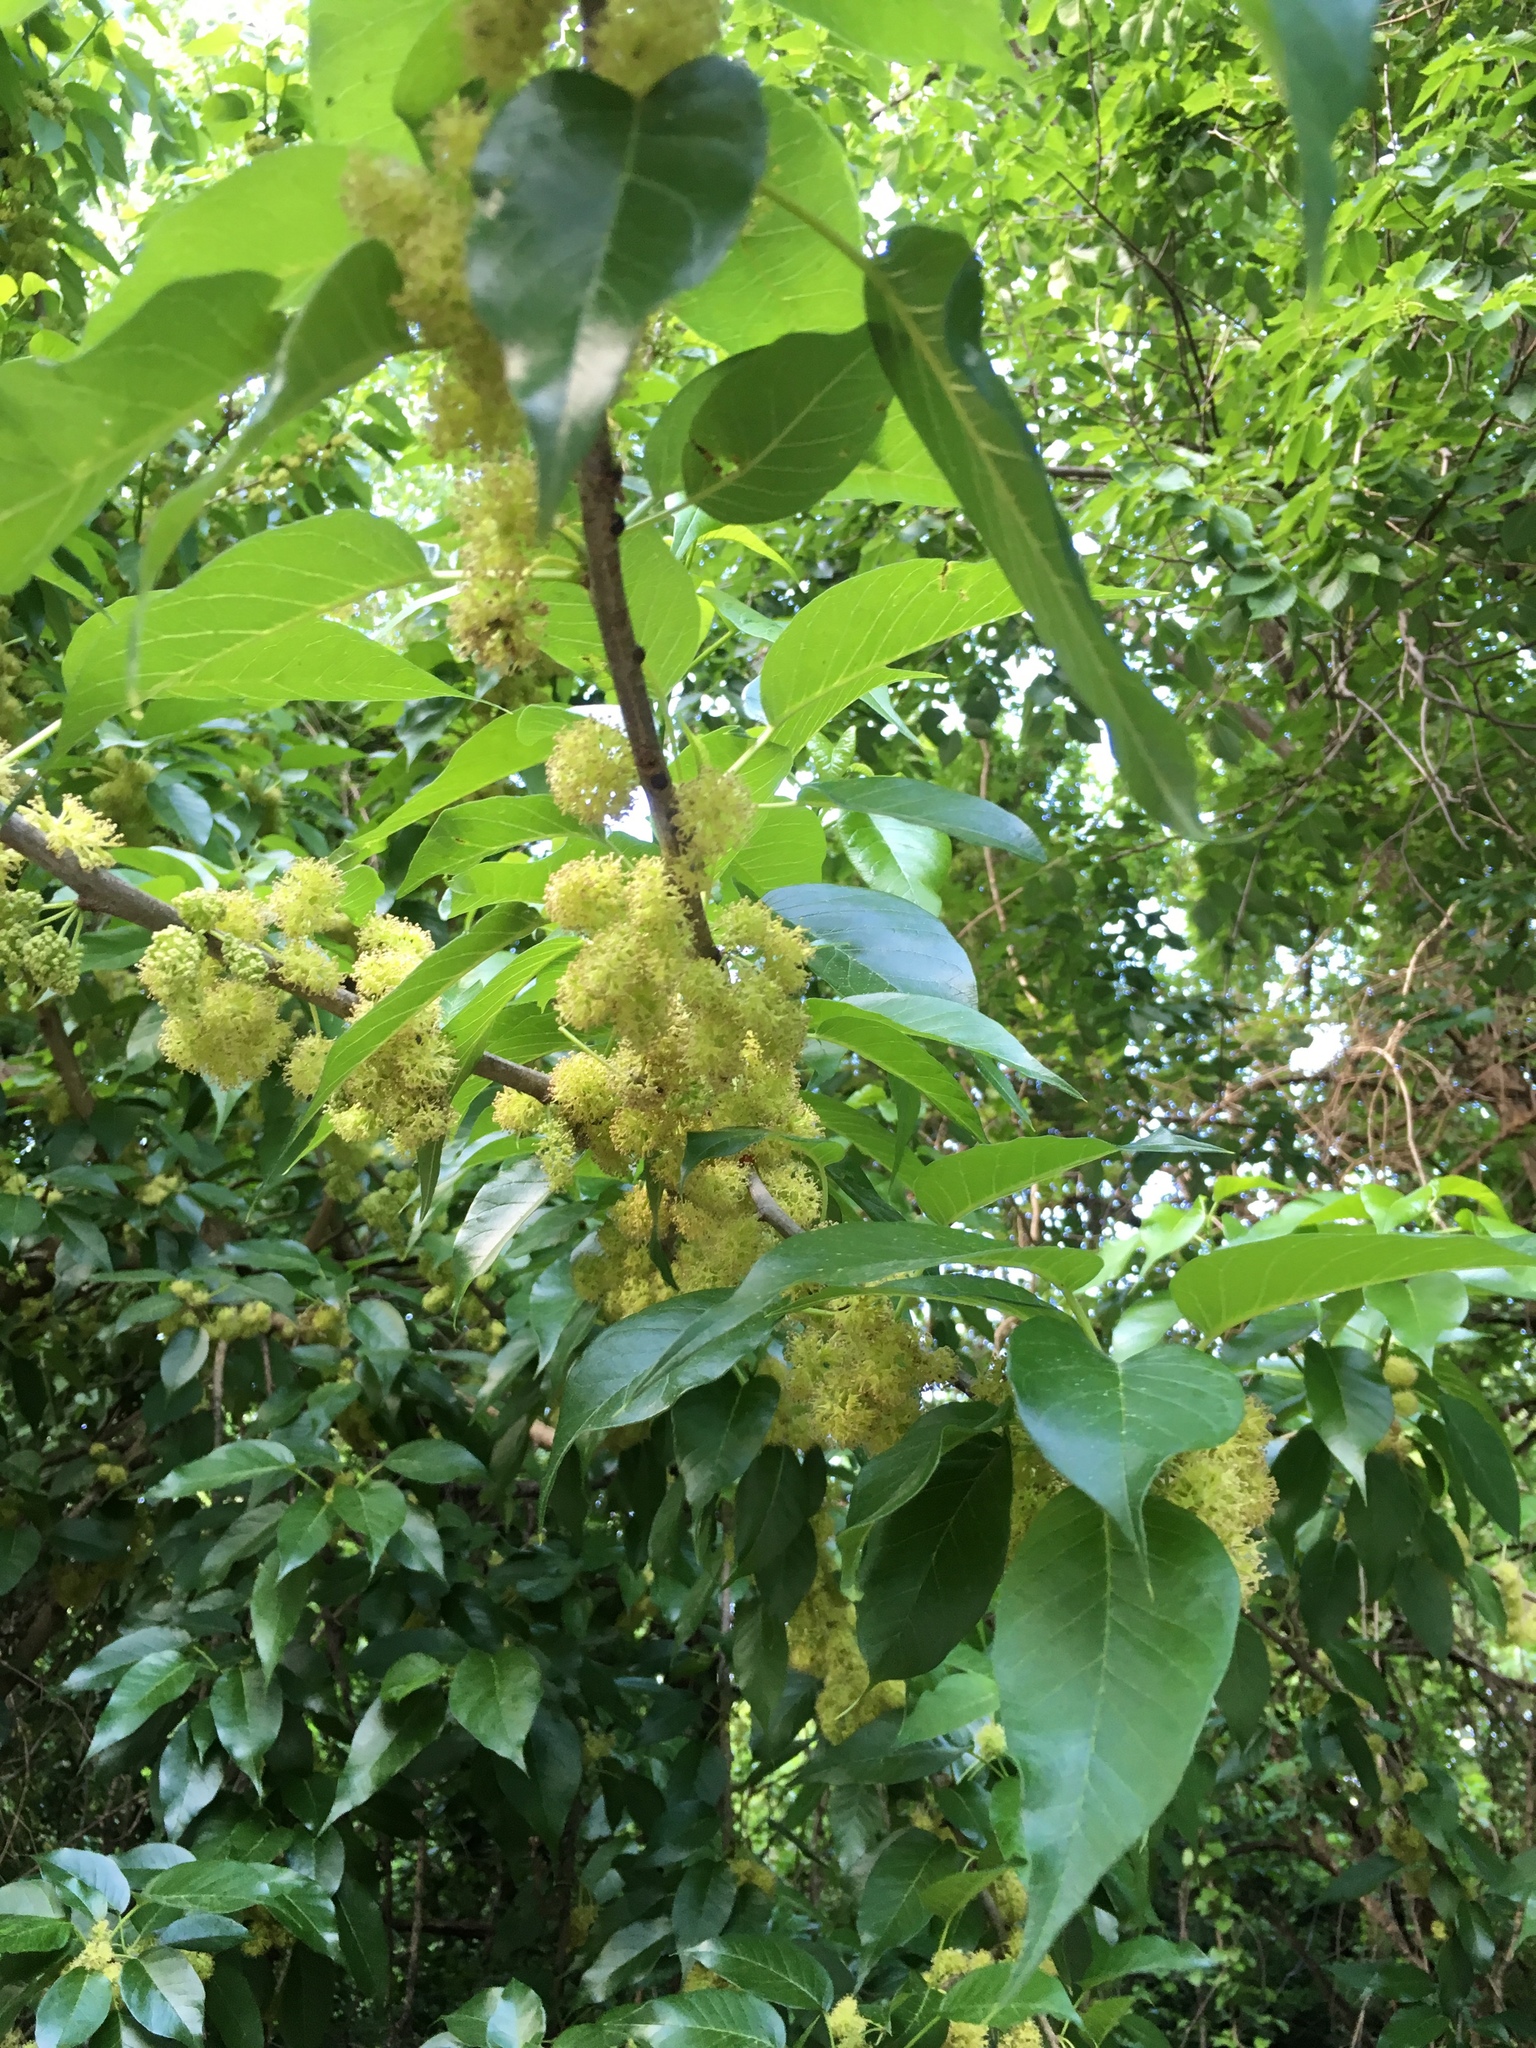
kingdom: Plantae
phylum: Tracheophyta
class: Magnoliopsida
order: Rosales
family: Moraceae
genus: Maclura
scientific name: Maclura pomifera
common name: Osage-orange
